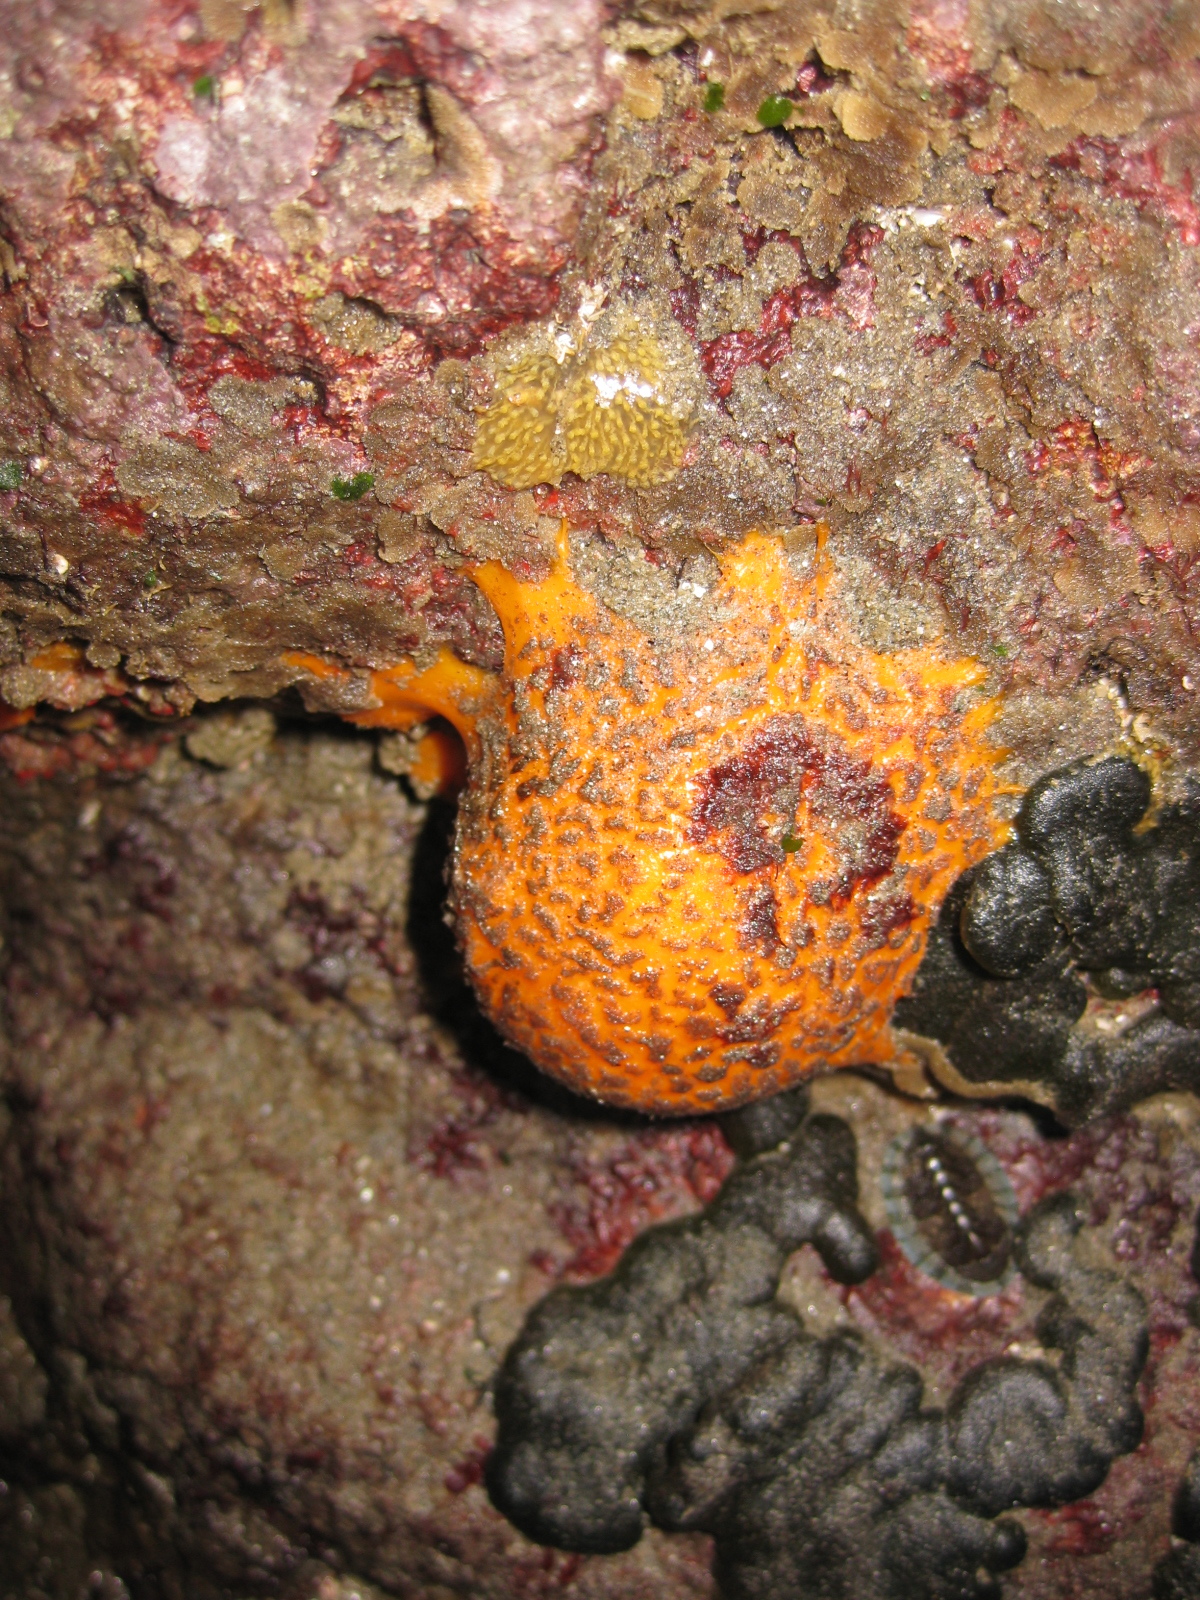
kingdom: Animalia
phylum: Porifera
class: Demospongiae
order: Tethyida
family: Tethyidae
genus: Tethya
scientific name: Tethya burtoni
